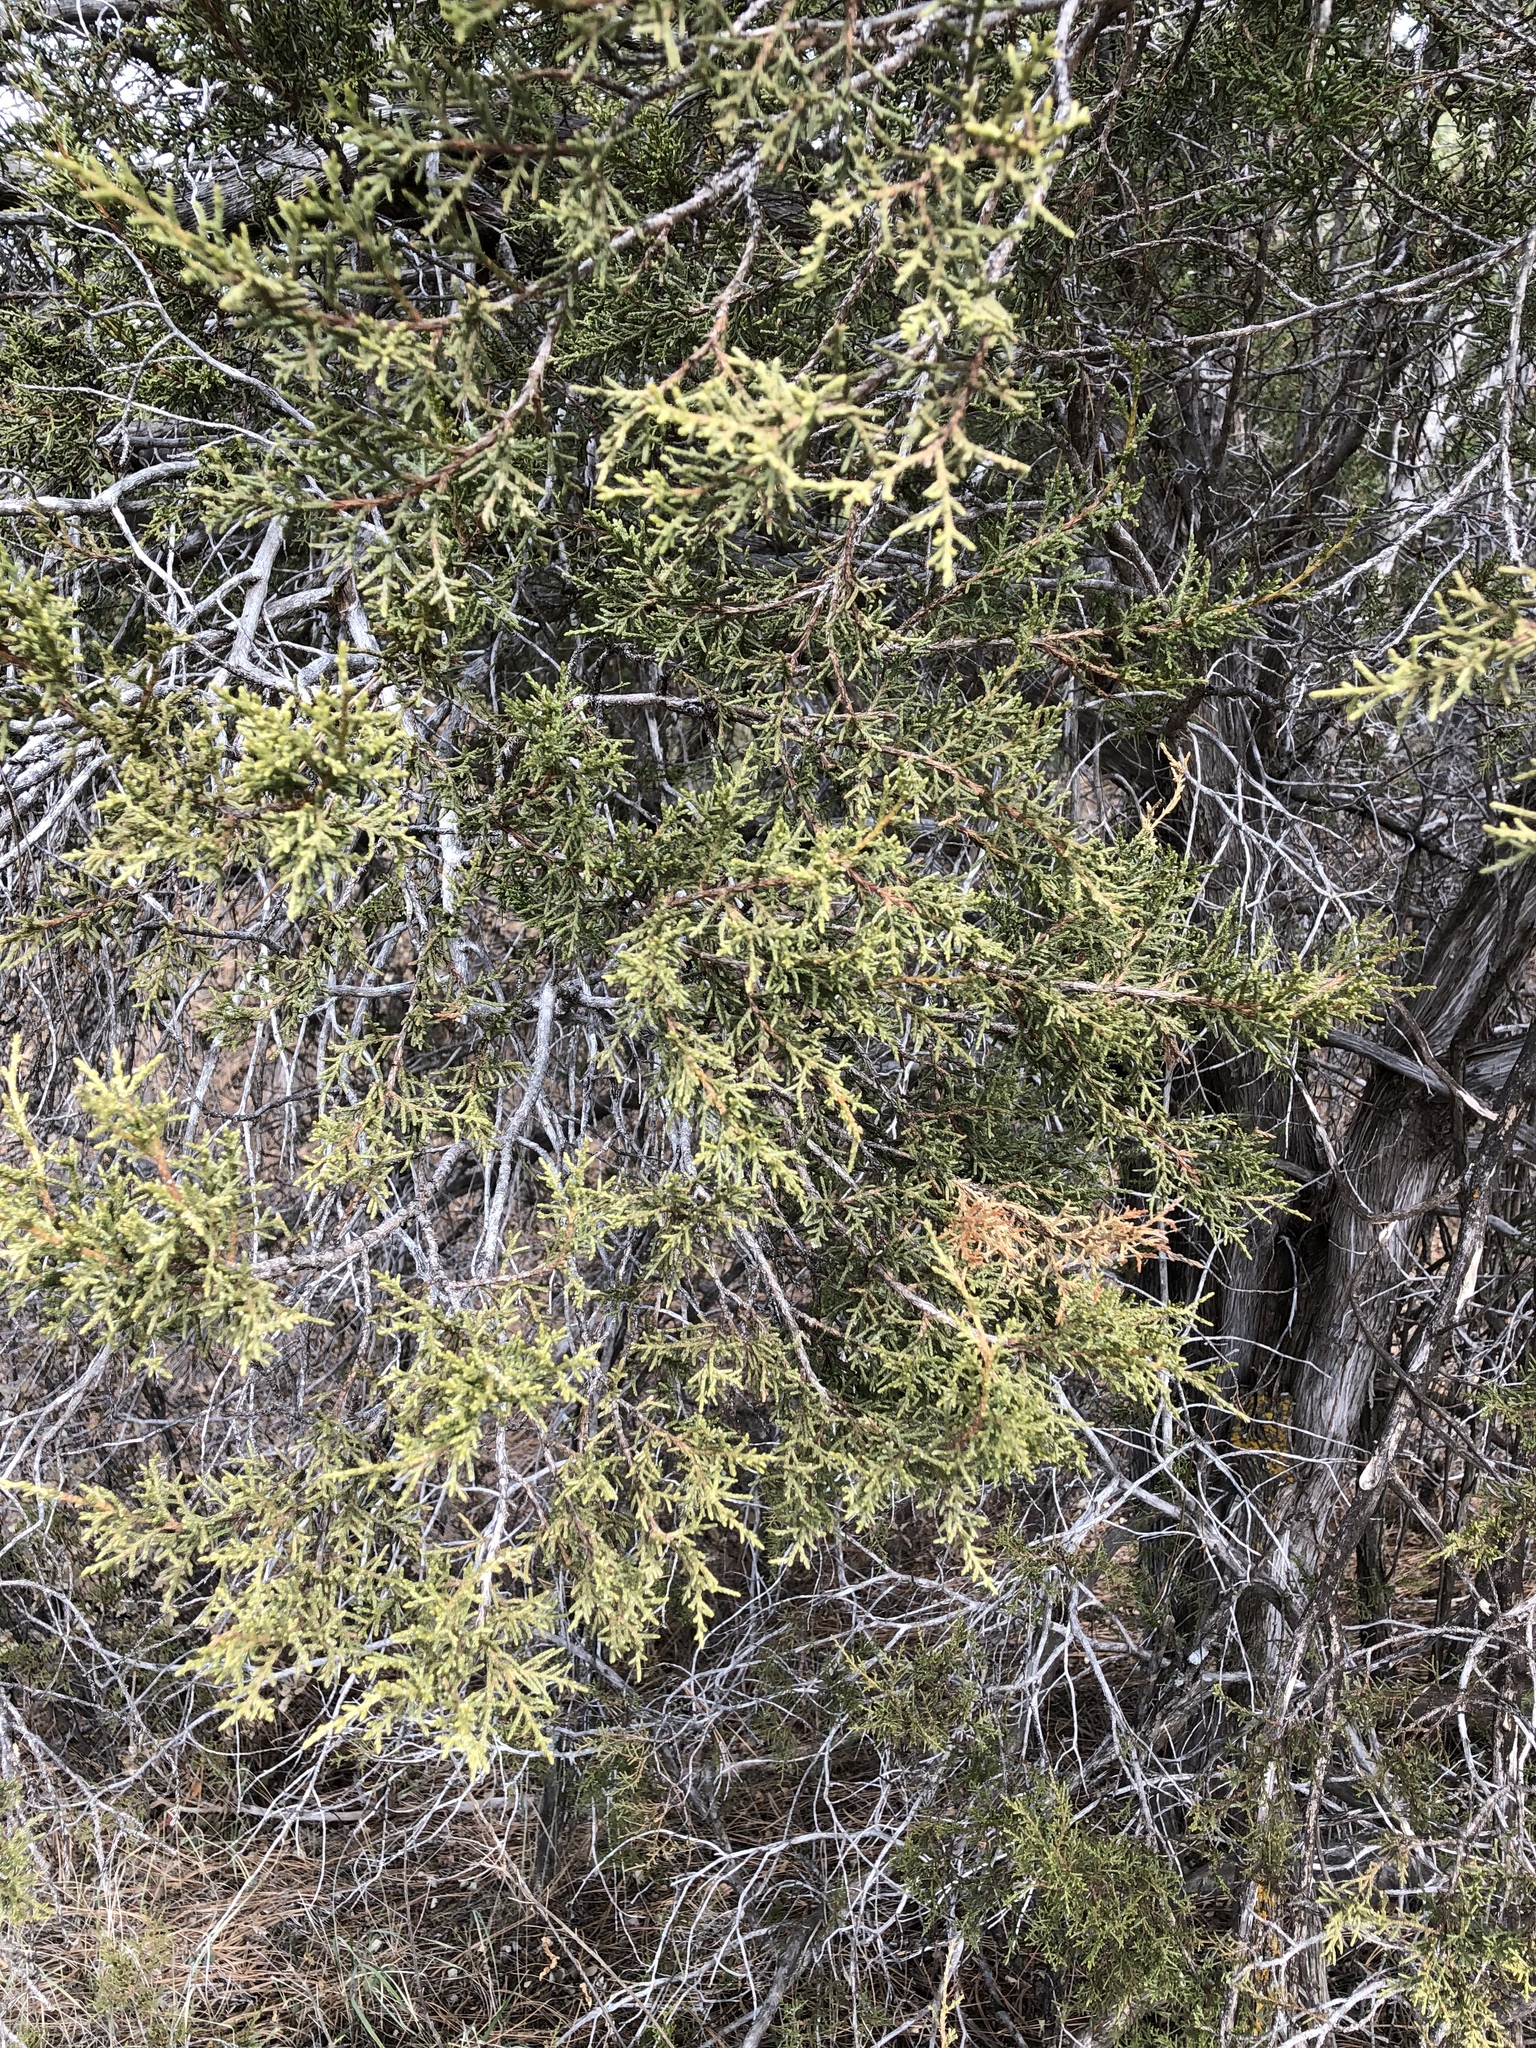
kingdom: Plantae
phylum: Tracheophyta
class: Pinopsida
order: Pinales
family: Cupressaceae
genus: Juniperus
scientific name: Juniperus monosperma
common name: One-seed juniper
